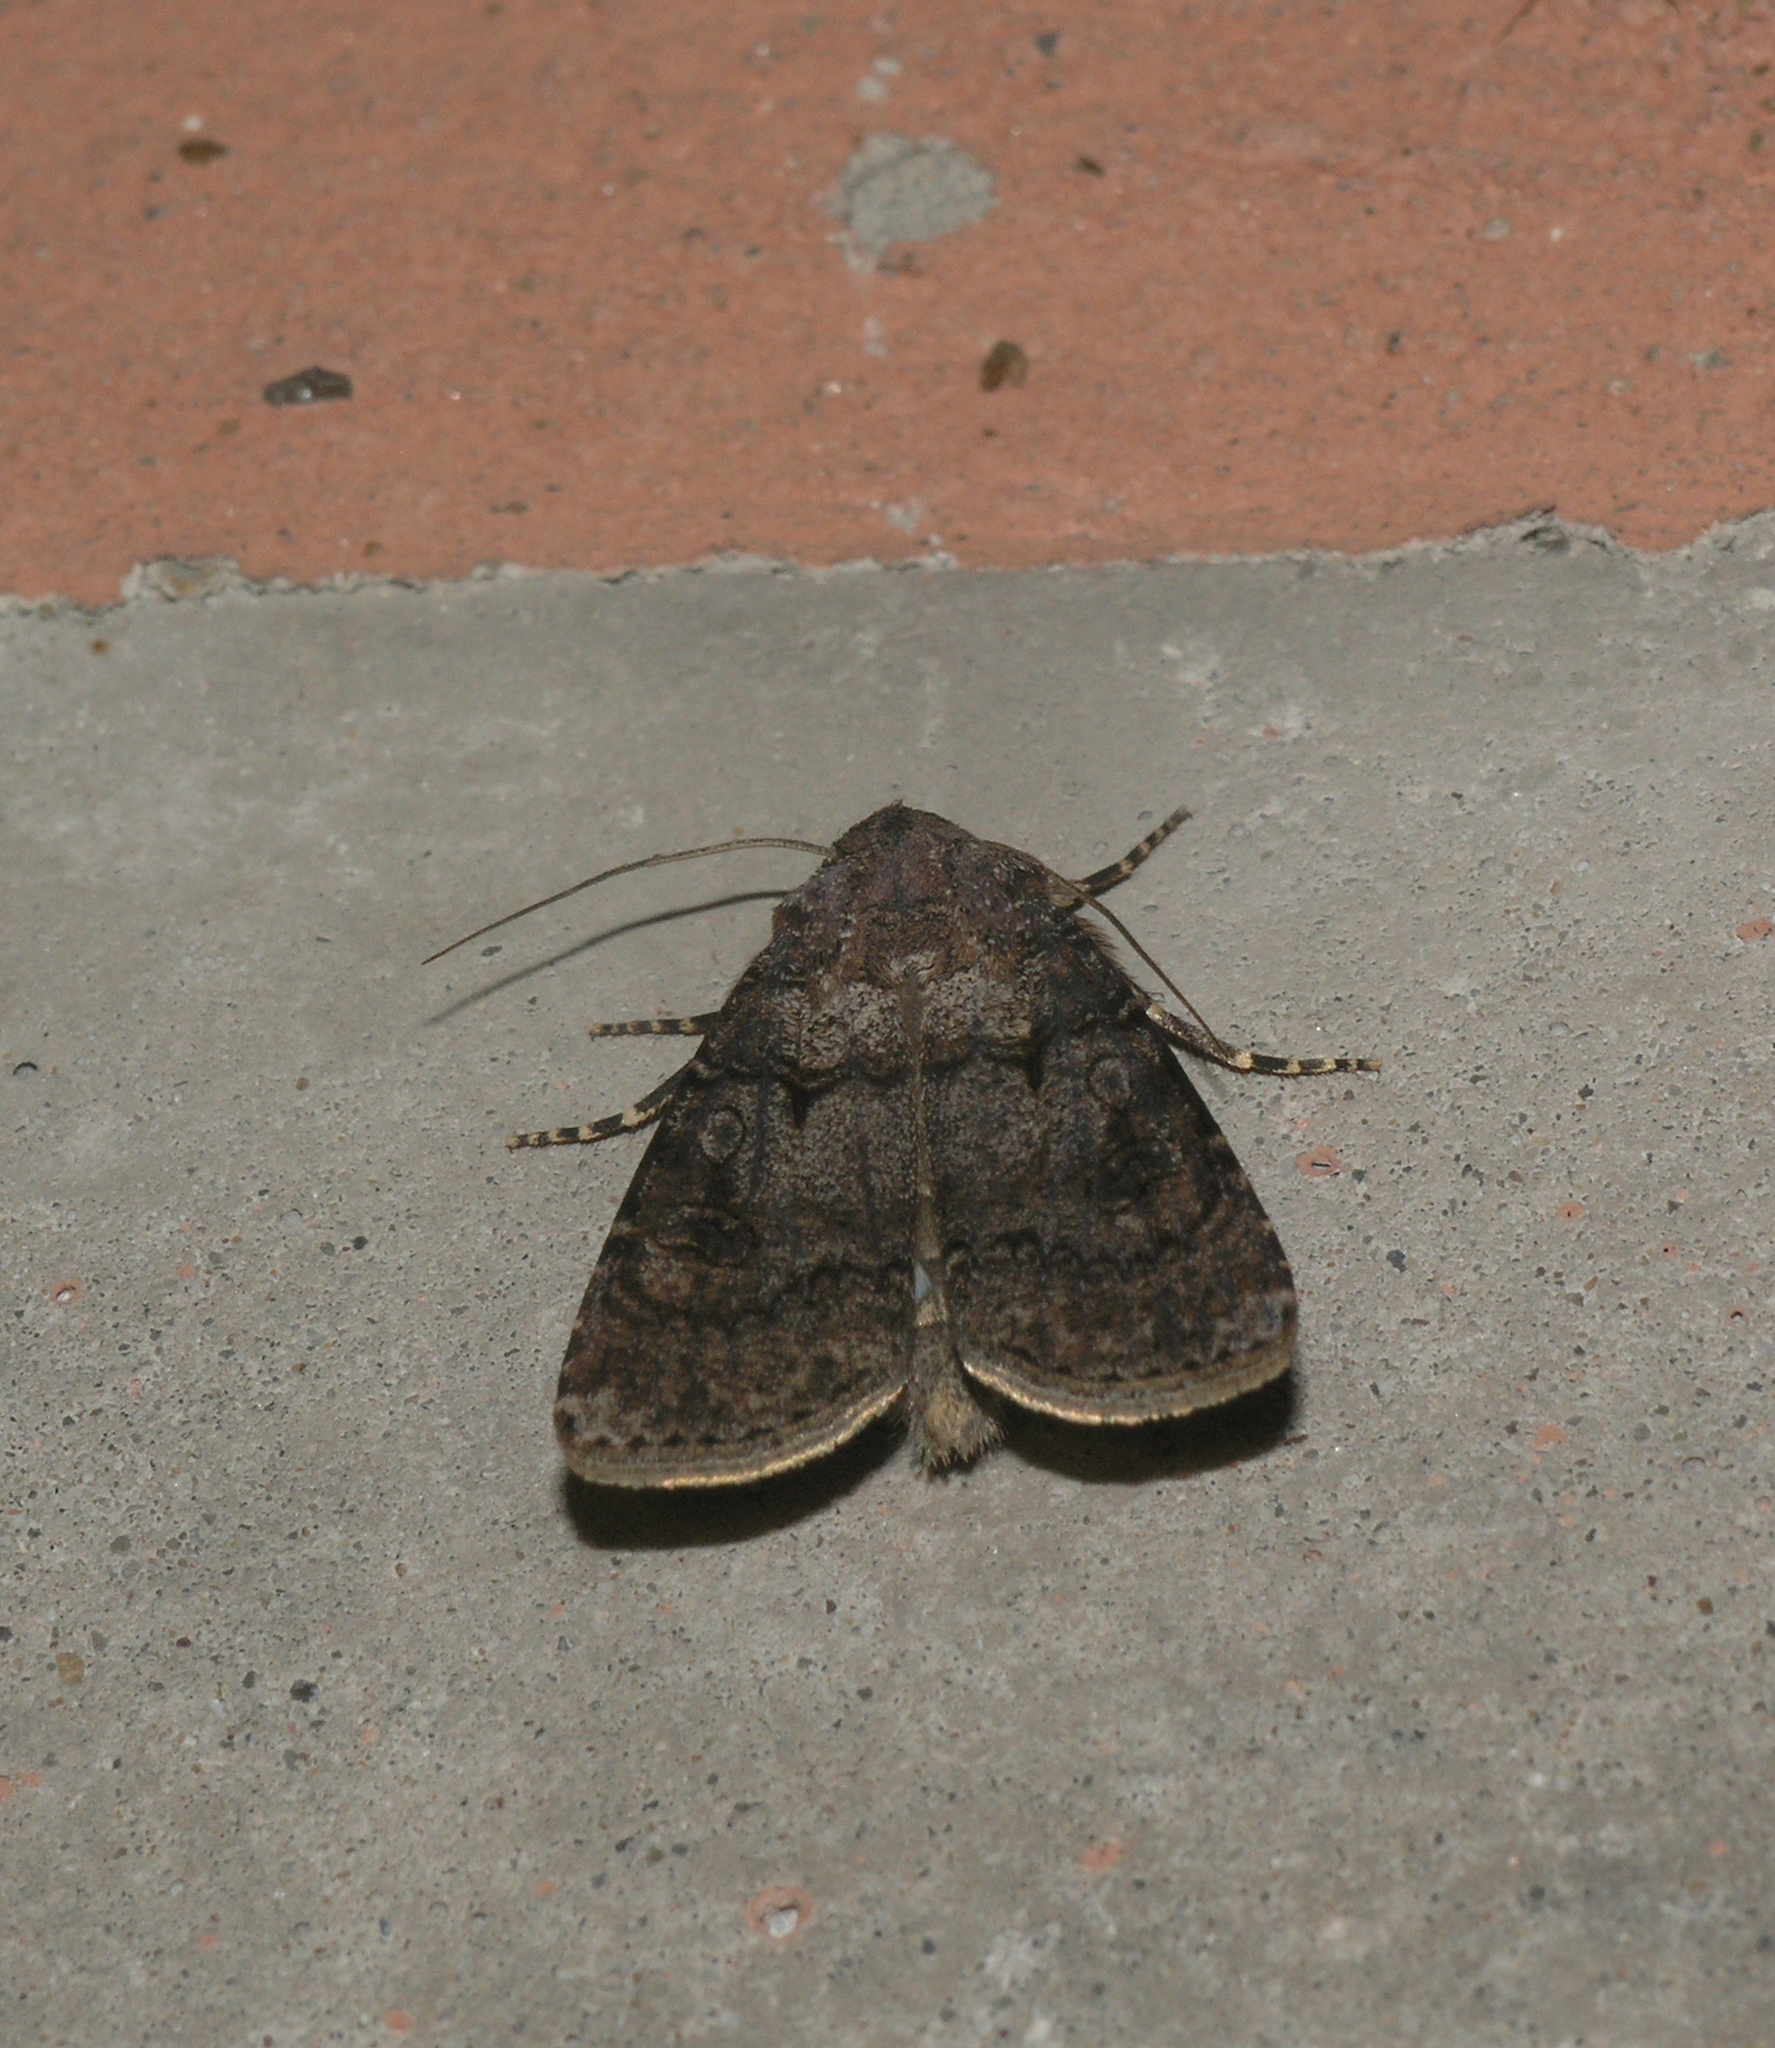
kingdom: Animalia
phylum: Arthropoda
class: Insecta
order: Lepidoptera
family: Noctuidae
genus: Graphiphora
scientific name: Graphiphora augur
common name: Double dart
